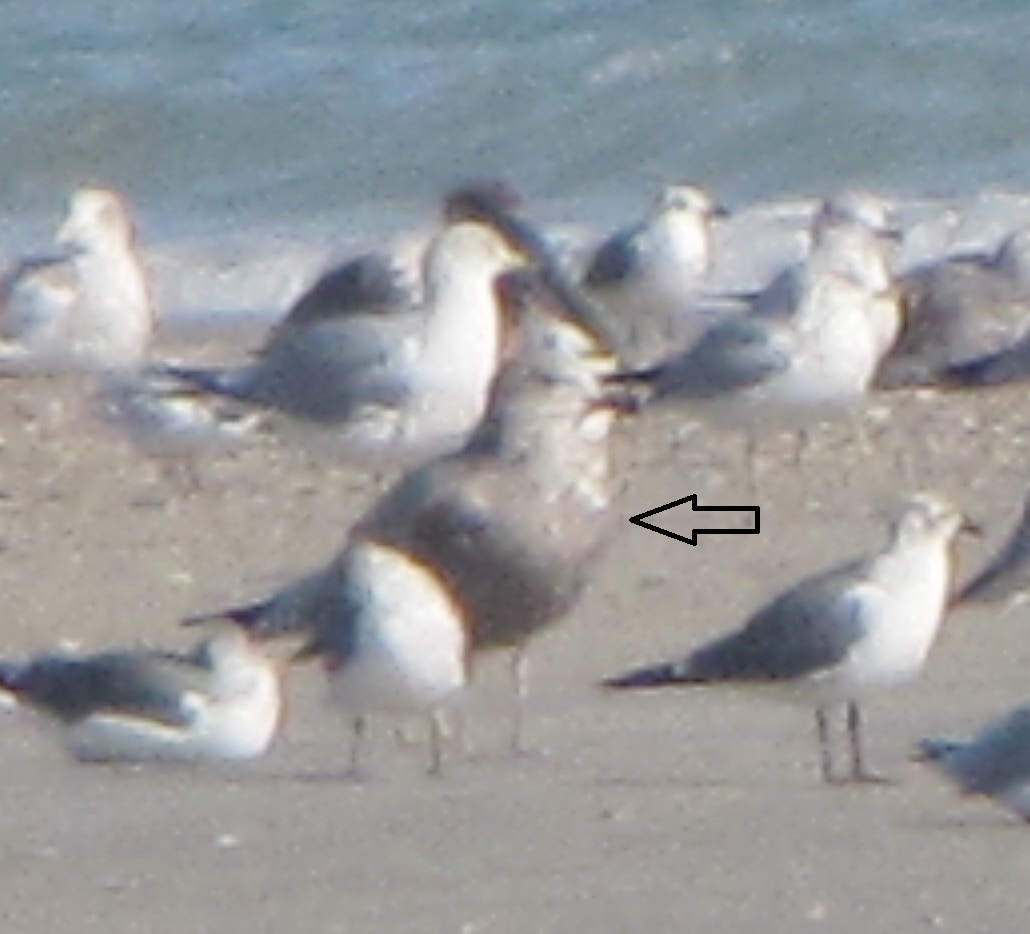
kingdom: Animalia
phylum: Chordata
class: Aves
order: Charadriiformes
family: Laridae
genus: Larus
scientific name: Larus argentatus
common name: Herring gull
